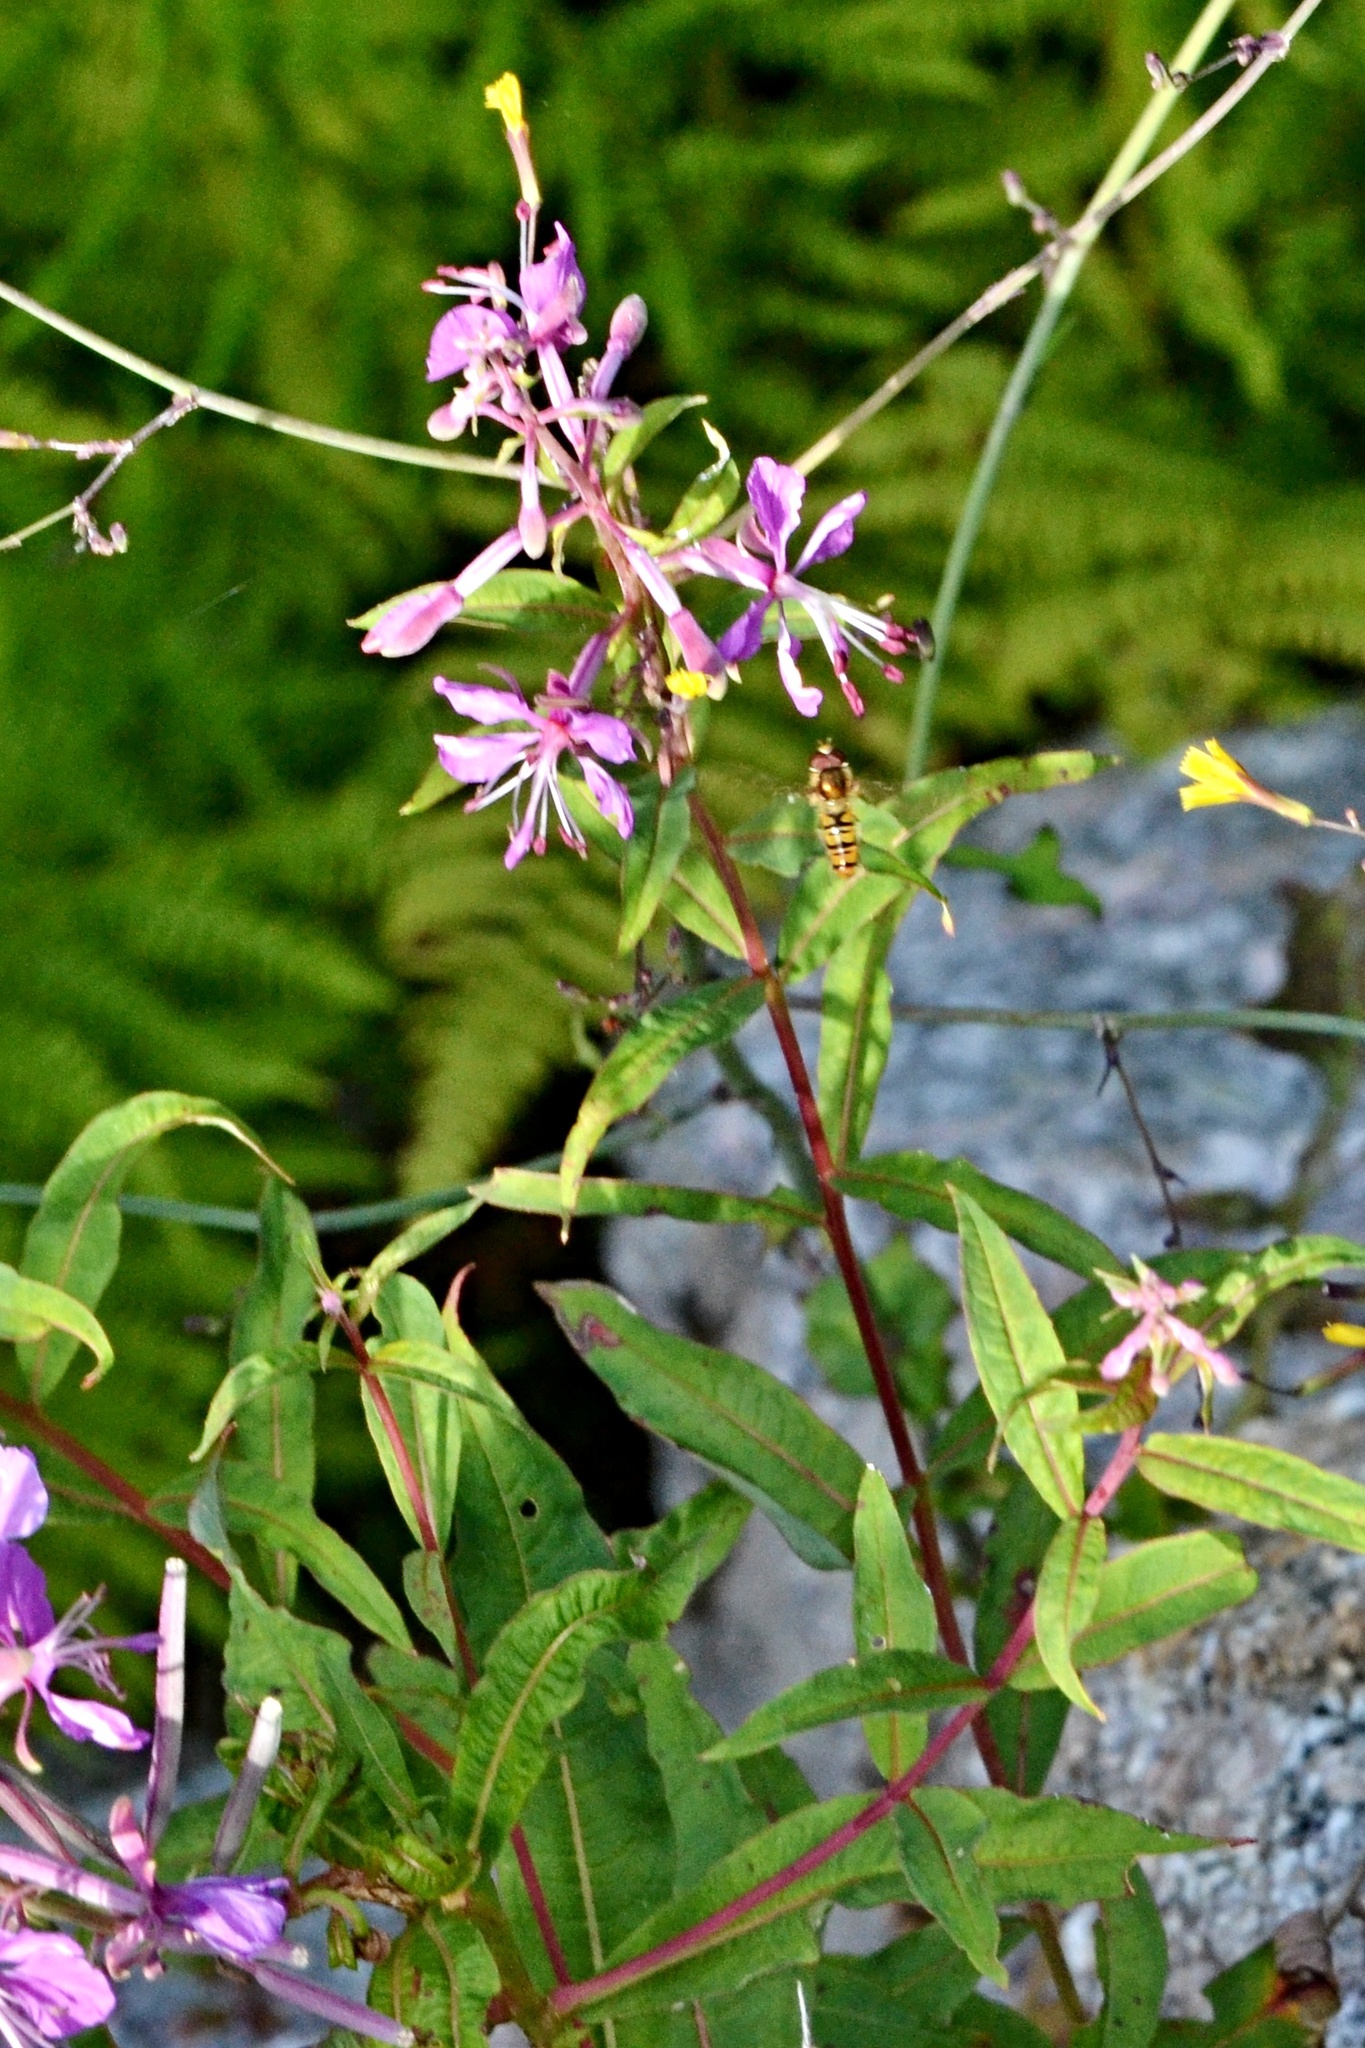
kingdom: Plantae
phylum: Tracheophyta
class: Magnoliopsida
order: Myrtales
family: Onagraceae
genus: Chamaenerion
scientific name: Chamaenerion angustifolium
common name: Fireweed
